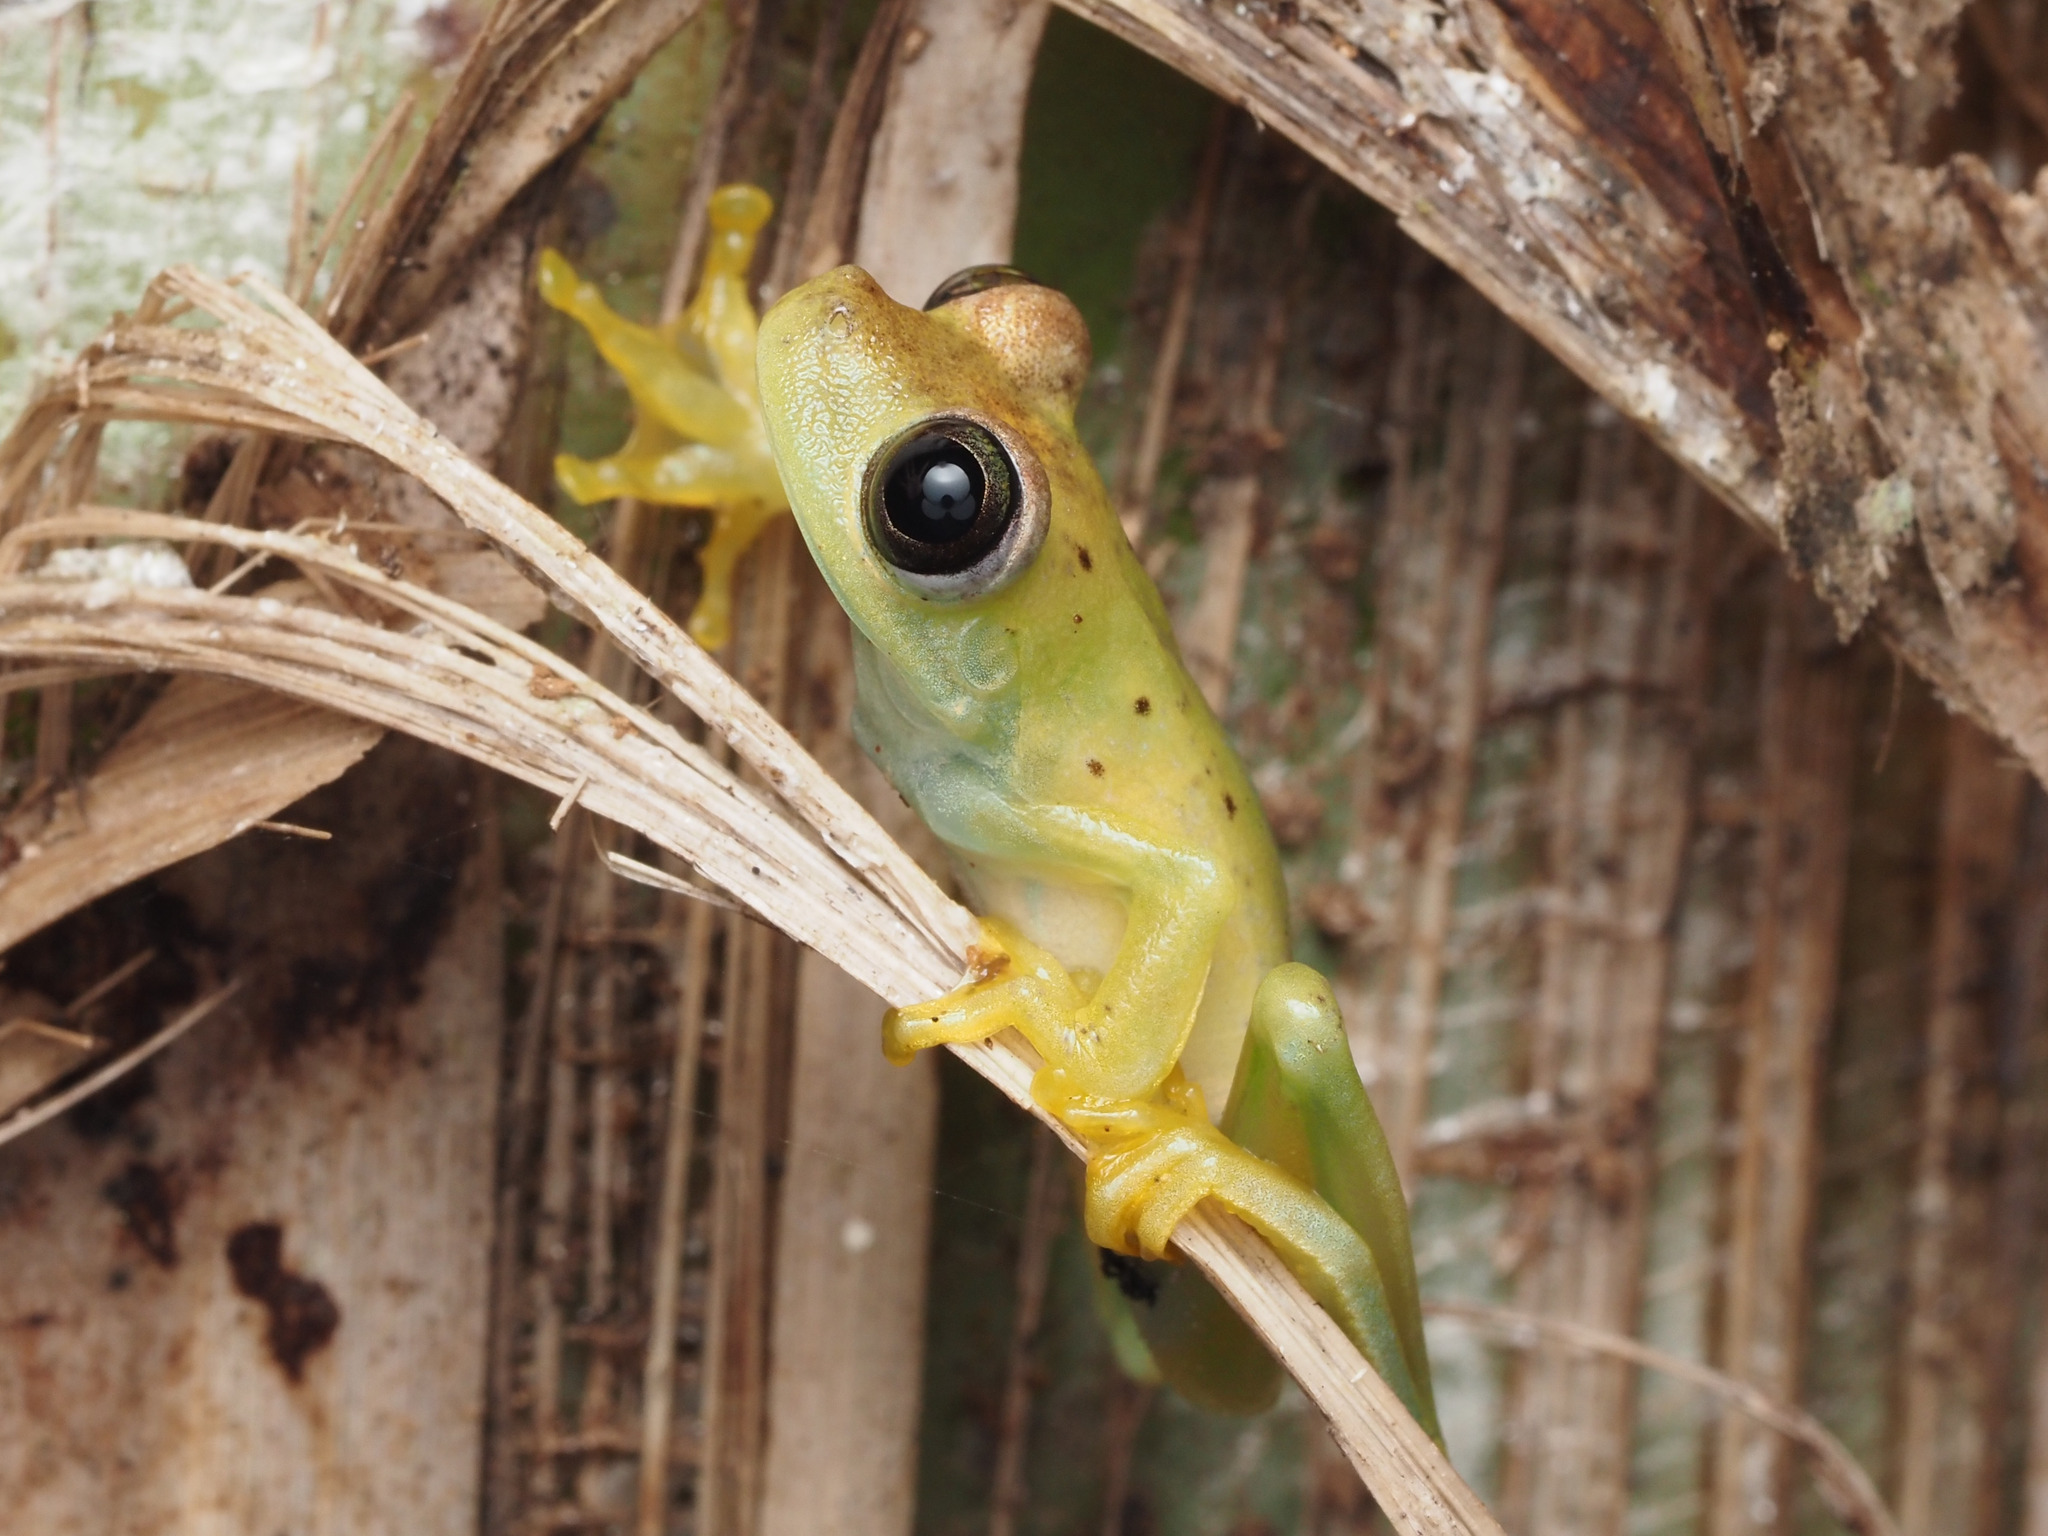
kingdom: Animalia
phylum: Chordata
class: Amphibia
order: Anura
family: Hylidae
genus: Boana
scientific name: Boana rosenbergi
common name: Rosenberg´s gladiator treefrog
